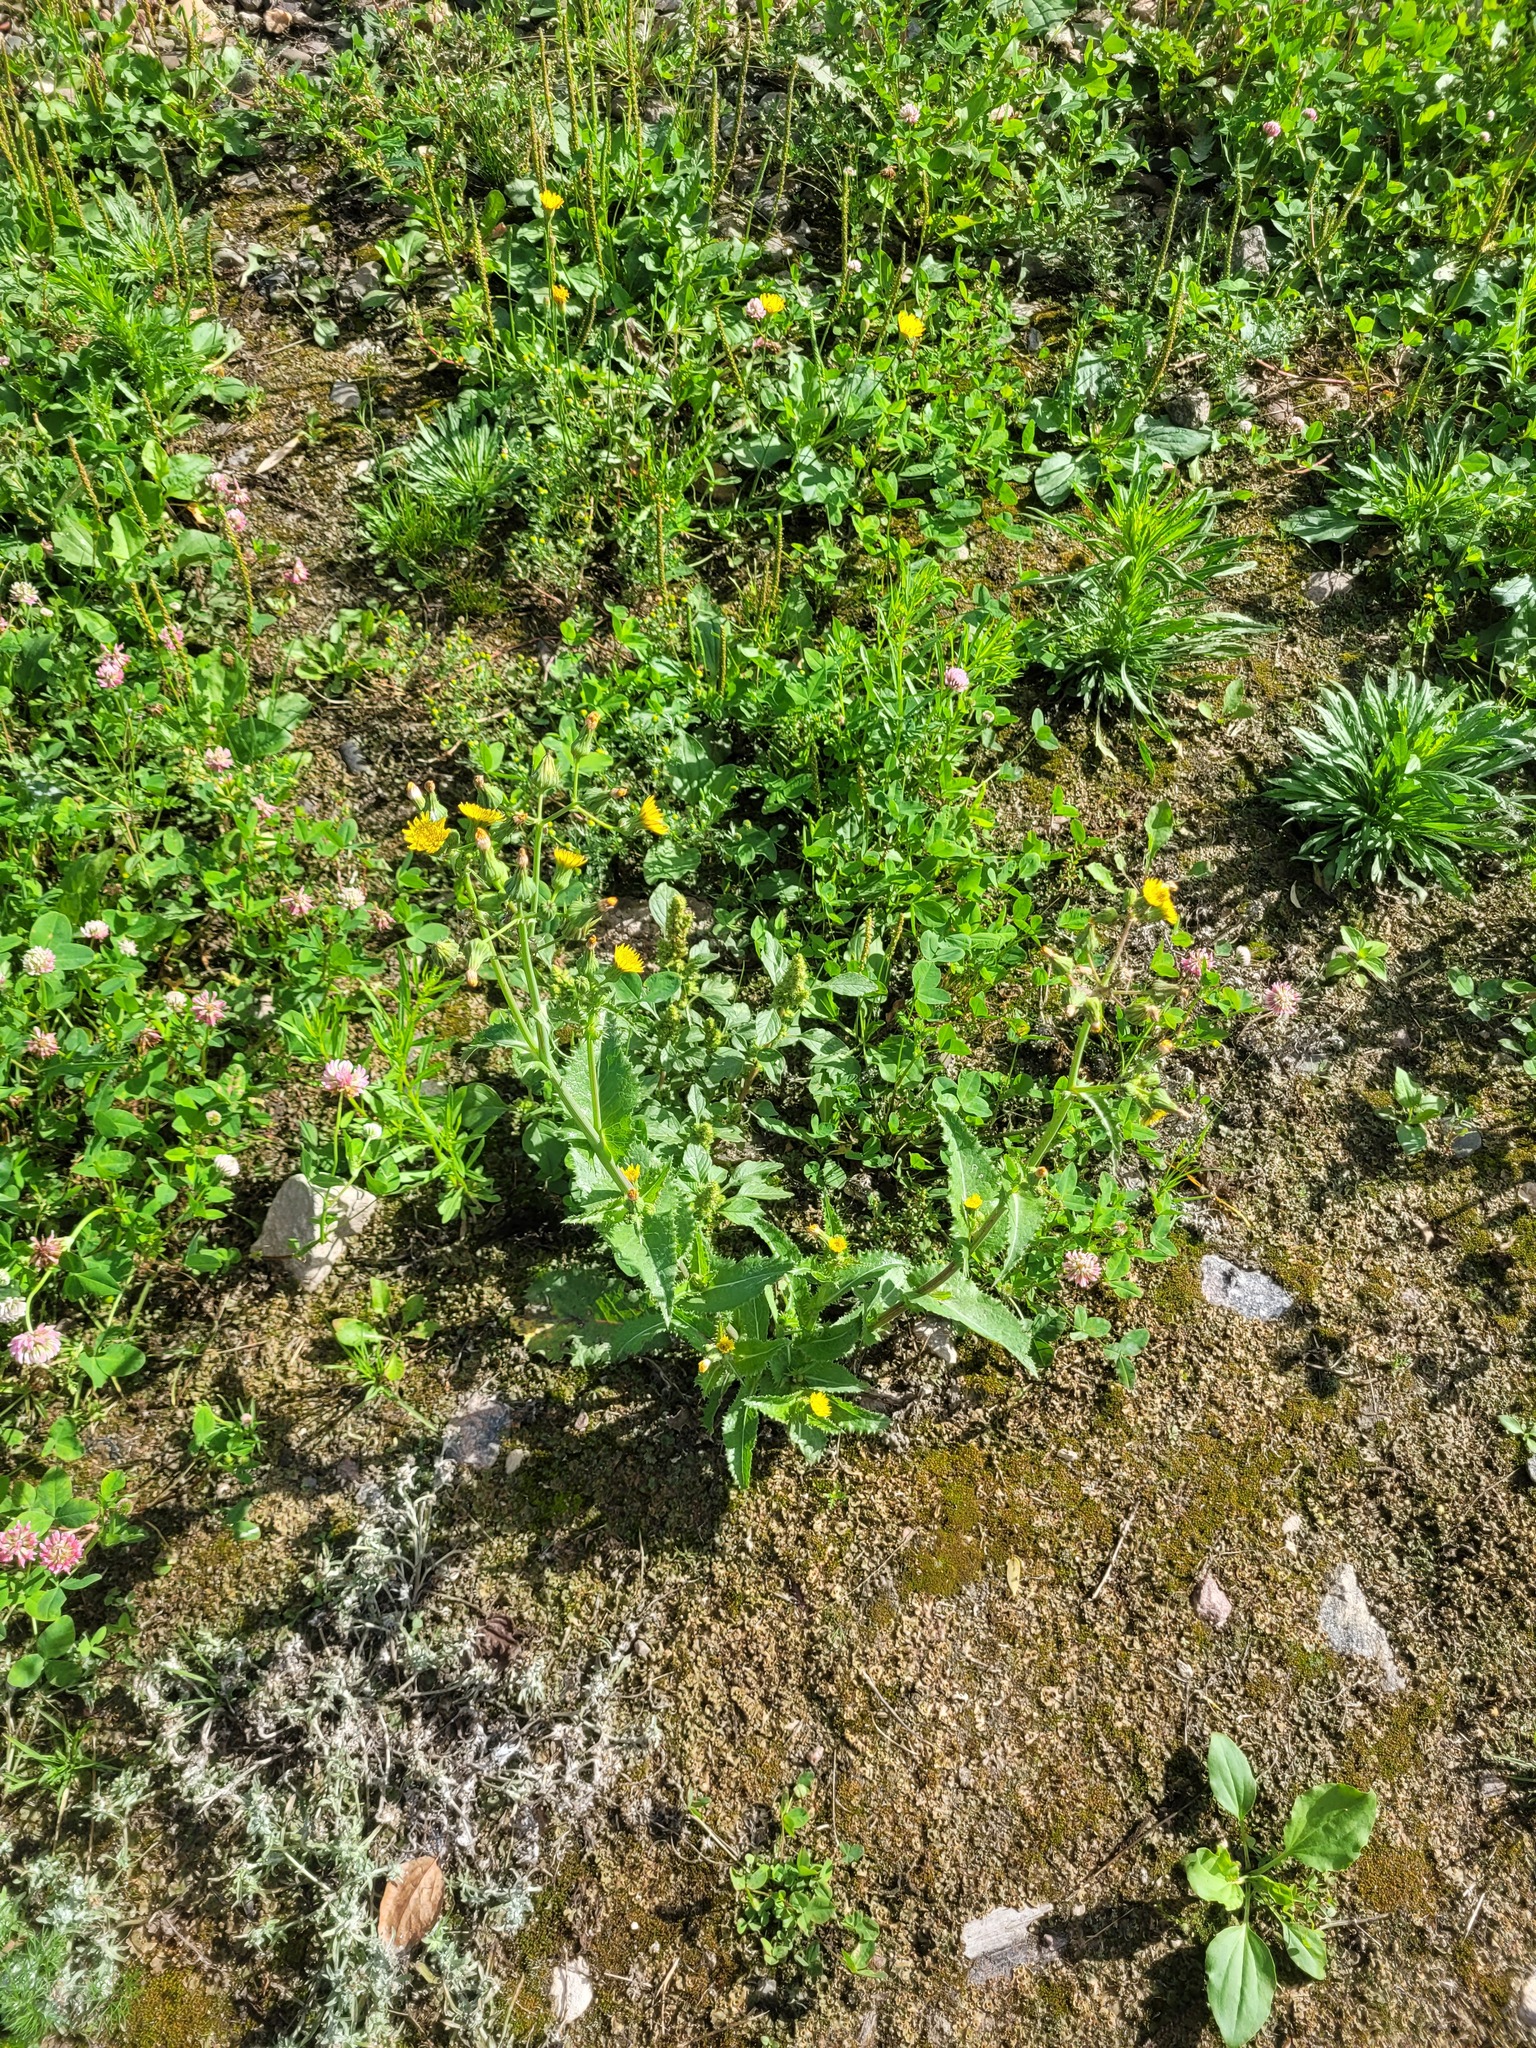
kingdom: Plantae
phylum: Tracheophyta
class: Magnoliopsida
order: Asterales
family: Asteraceae
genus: Sonchus
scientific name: Sonchus asper
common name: Prickly sow-thistle
